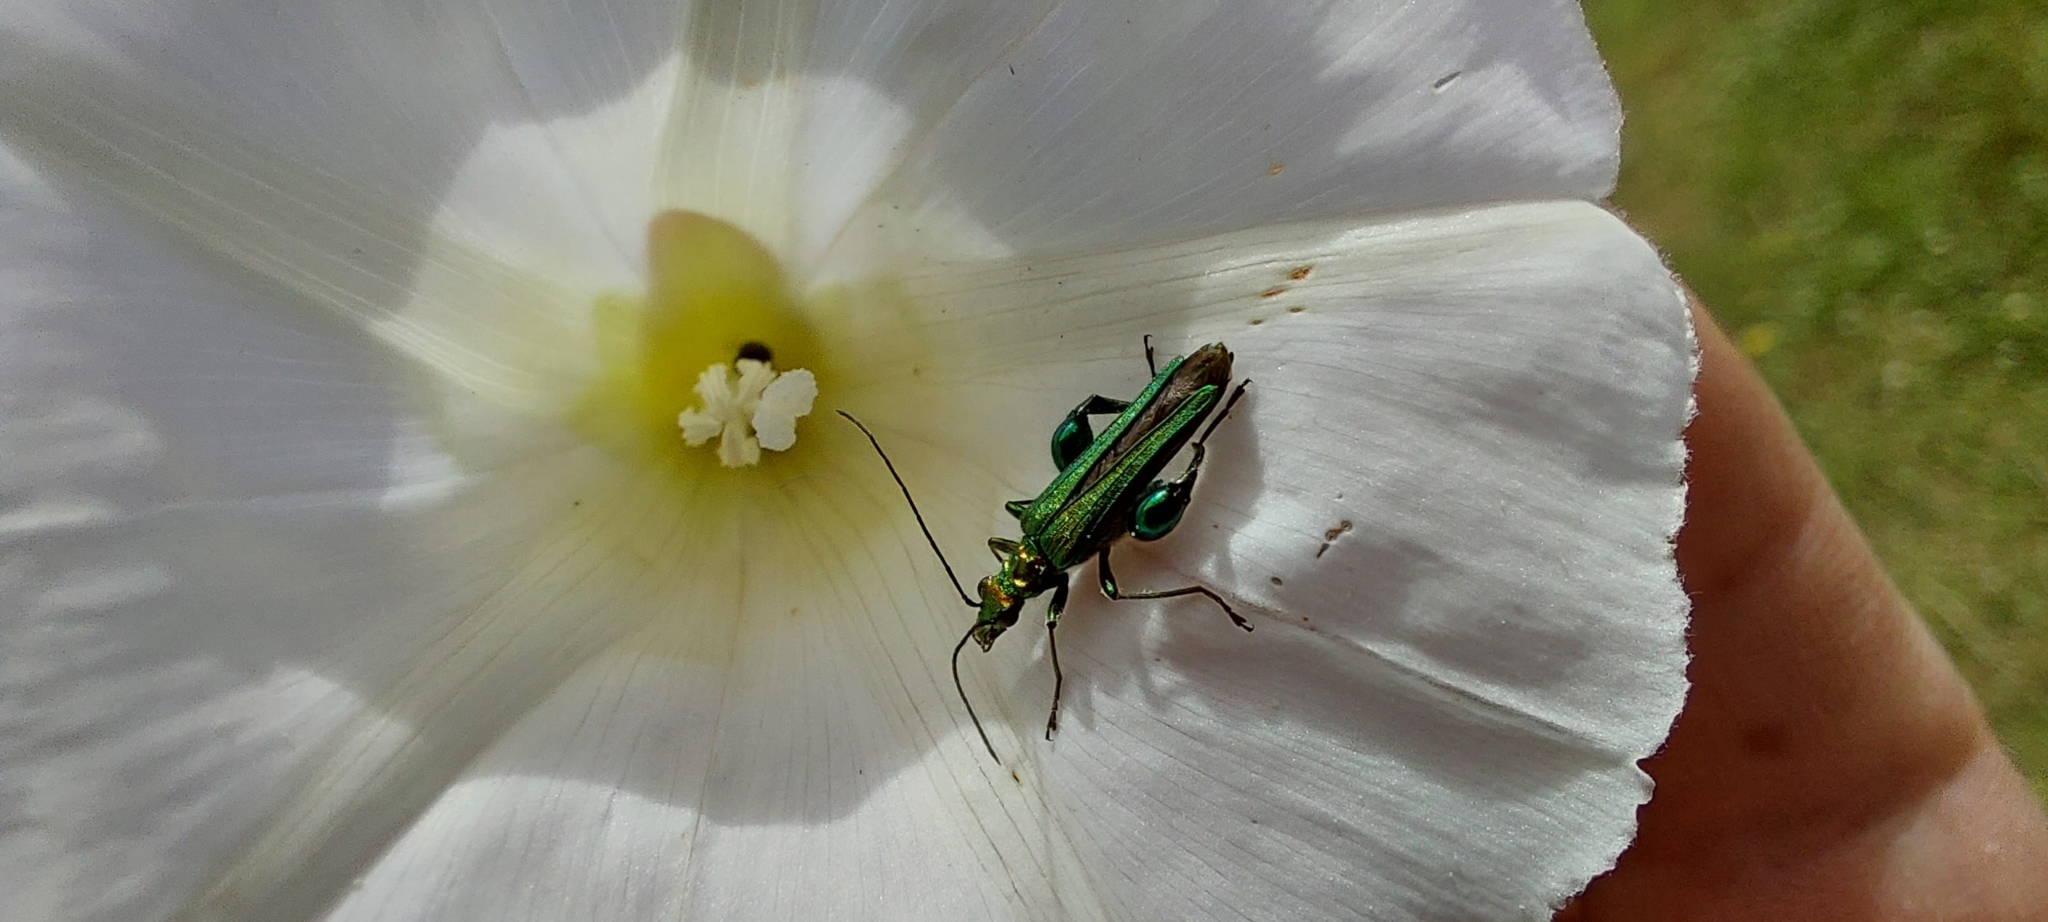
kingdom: Animalia
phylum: Arthropoda
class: Insecta
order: Coleoptera
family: Oedemeridae
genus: Oedemera
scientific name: Oedemera nobilis
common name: Swollen-thighed beetle
